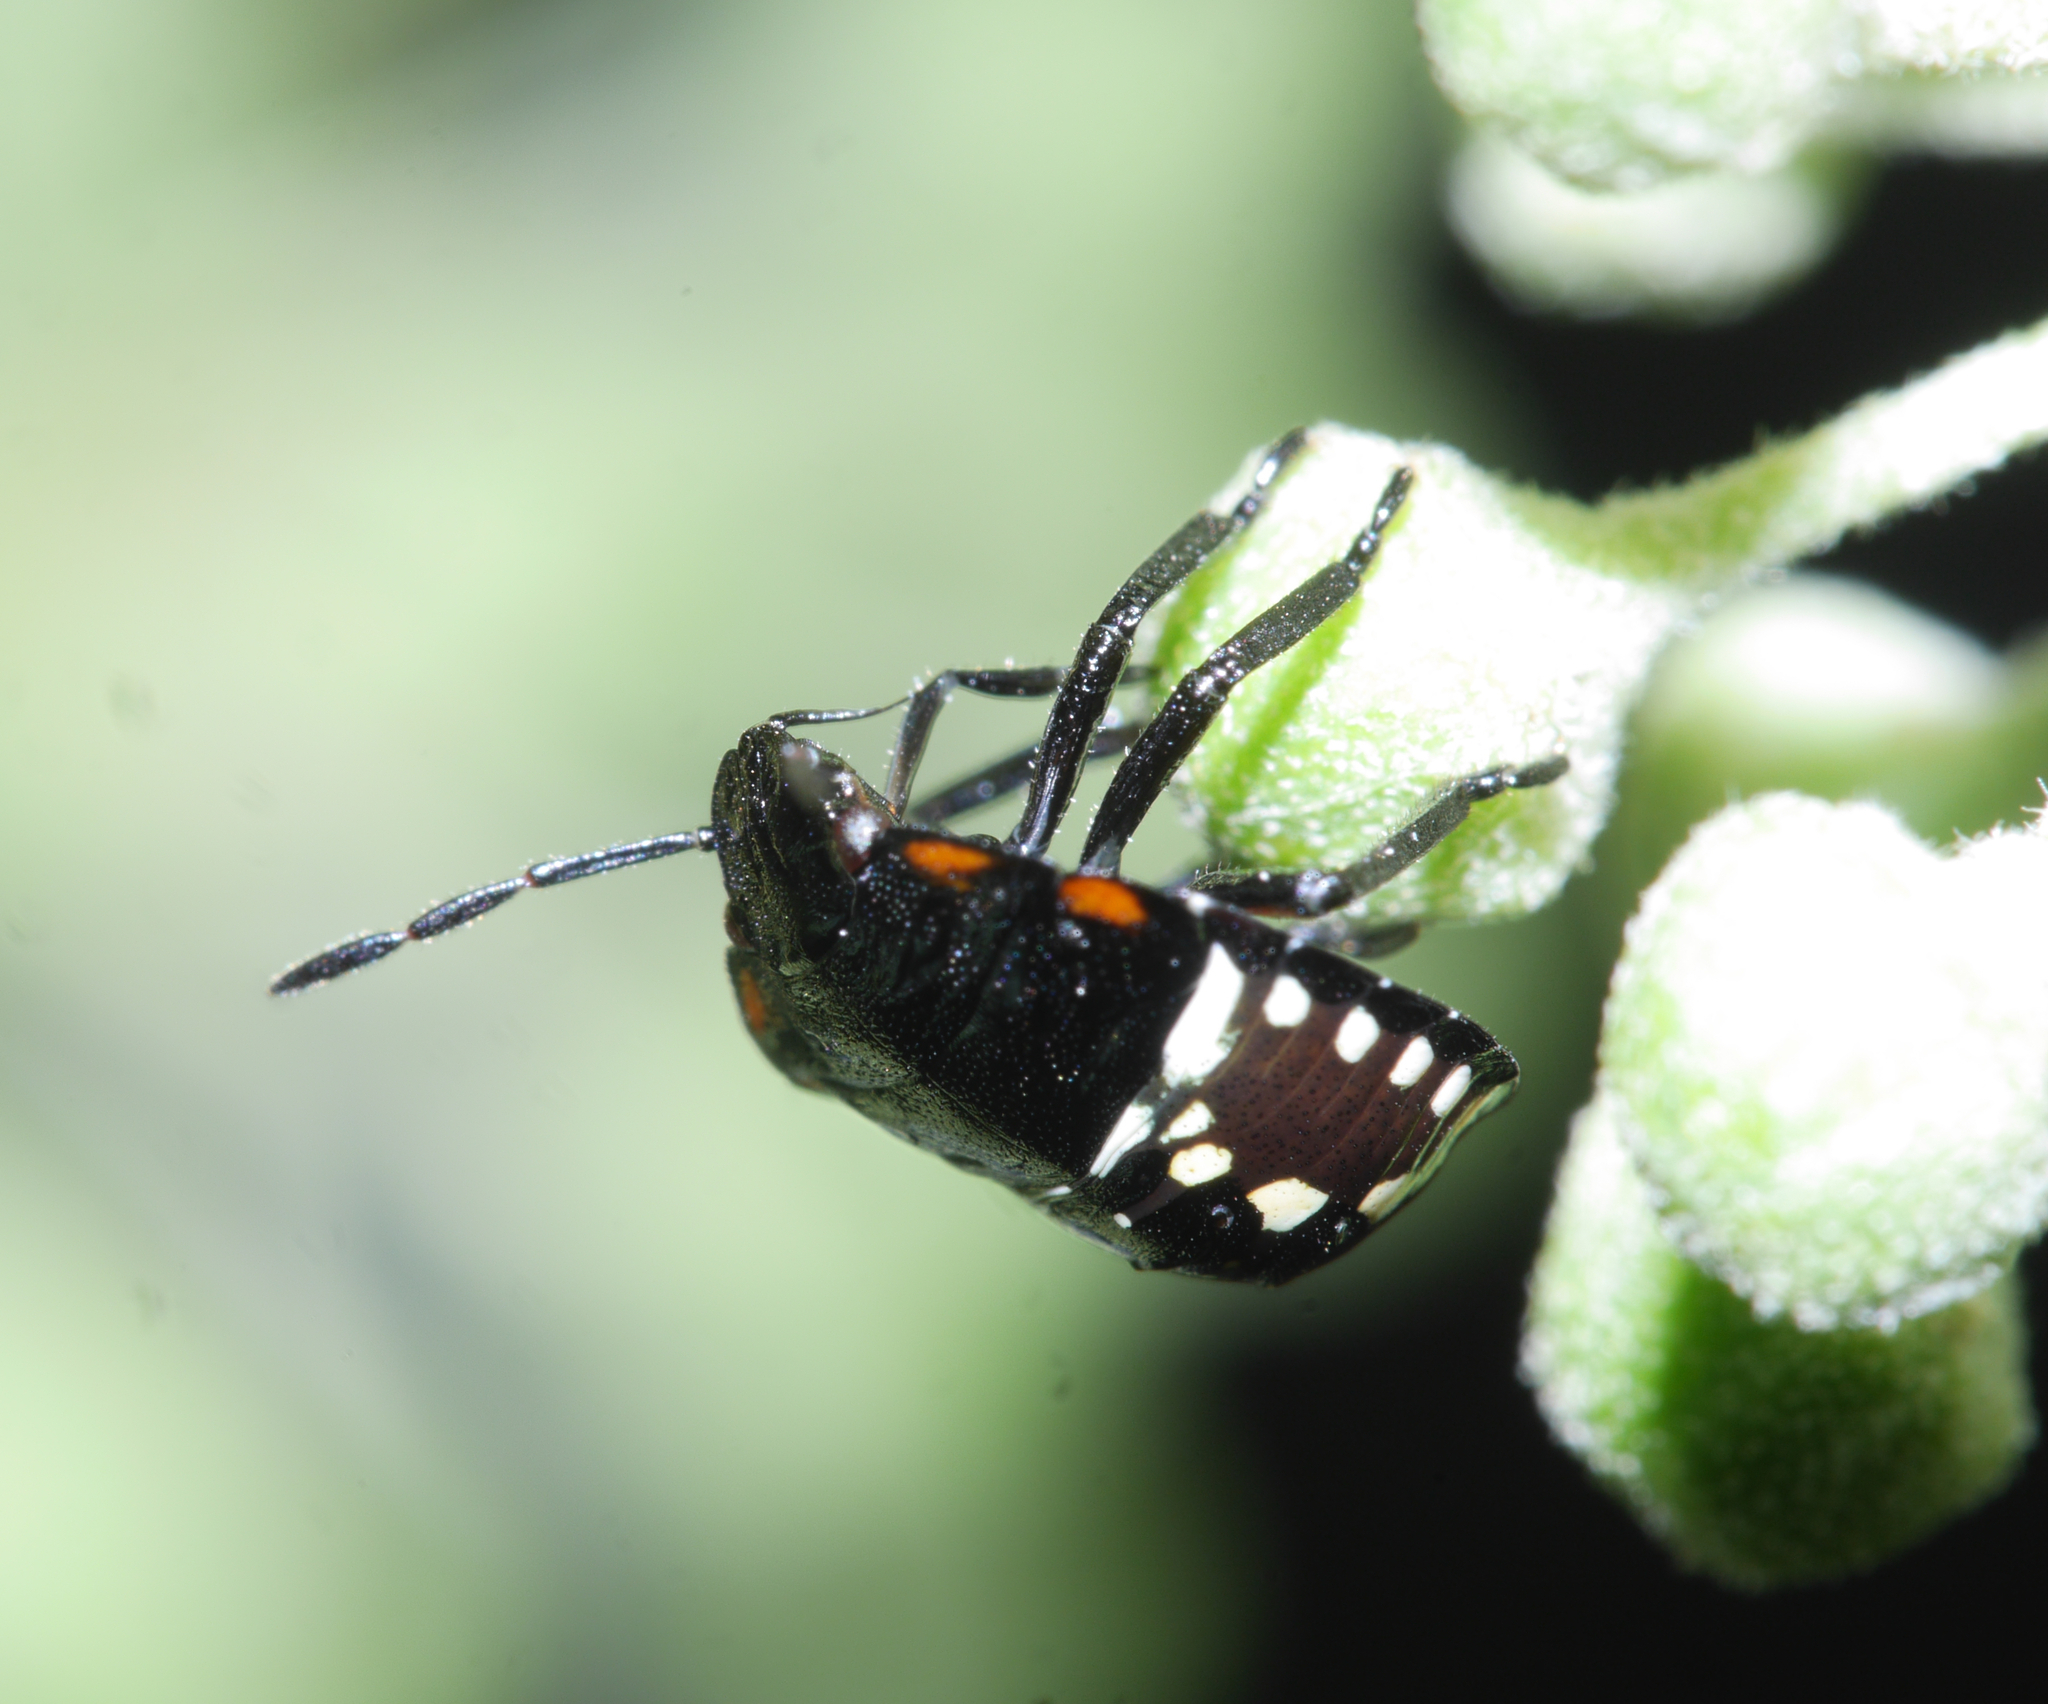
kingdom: Animalia
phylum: Arthropoda
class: Insecta
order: Hemiptera
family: Pentatomidae
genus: Nezara
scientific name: Nezara viridula
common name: Southern green stink bug
